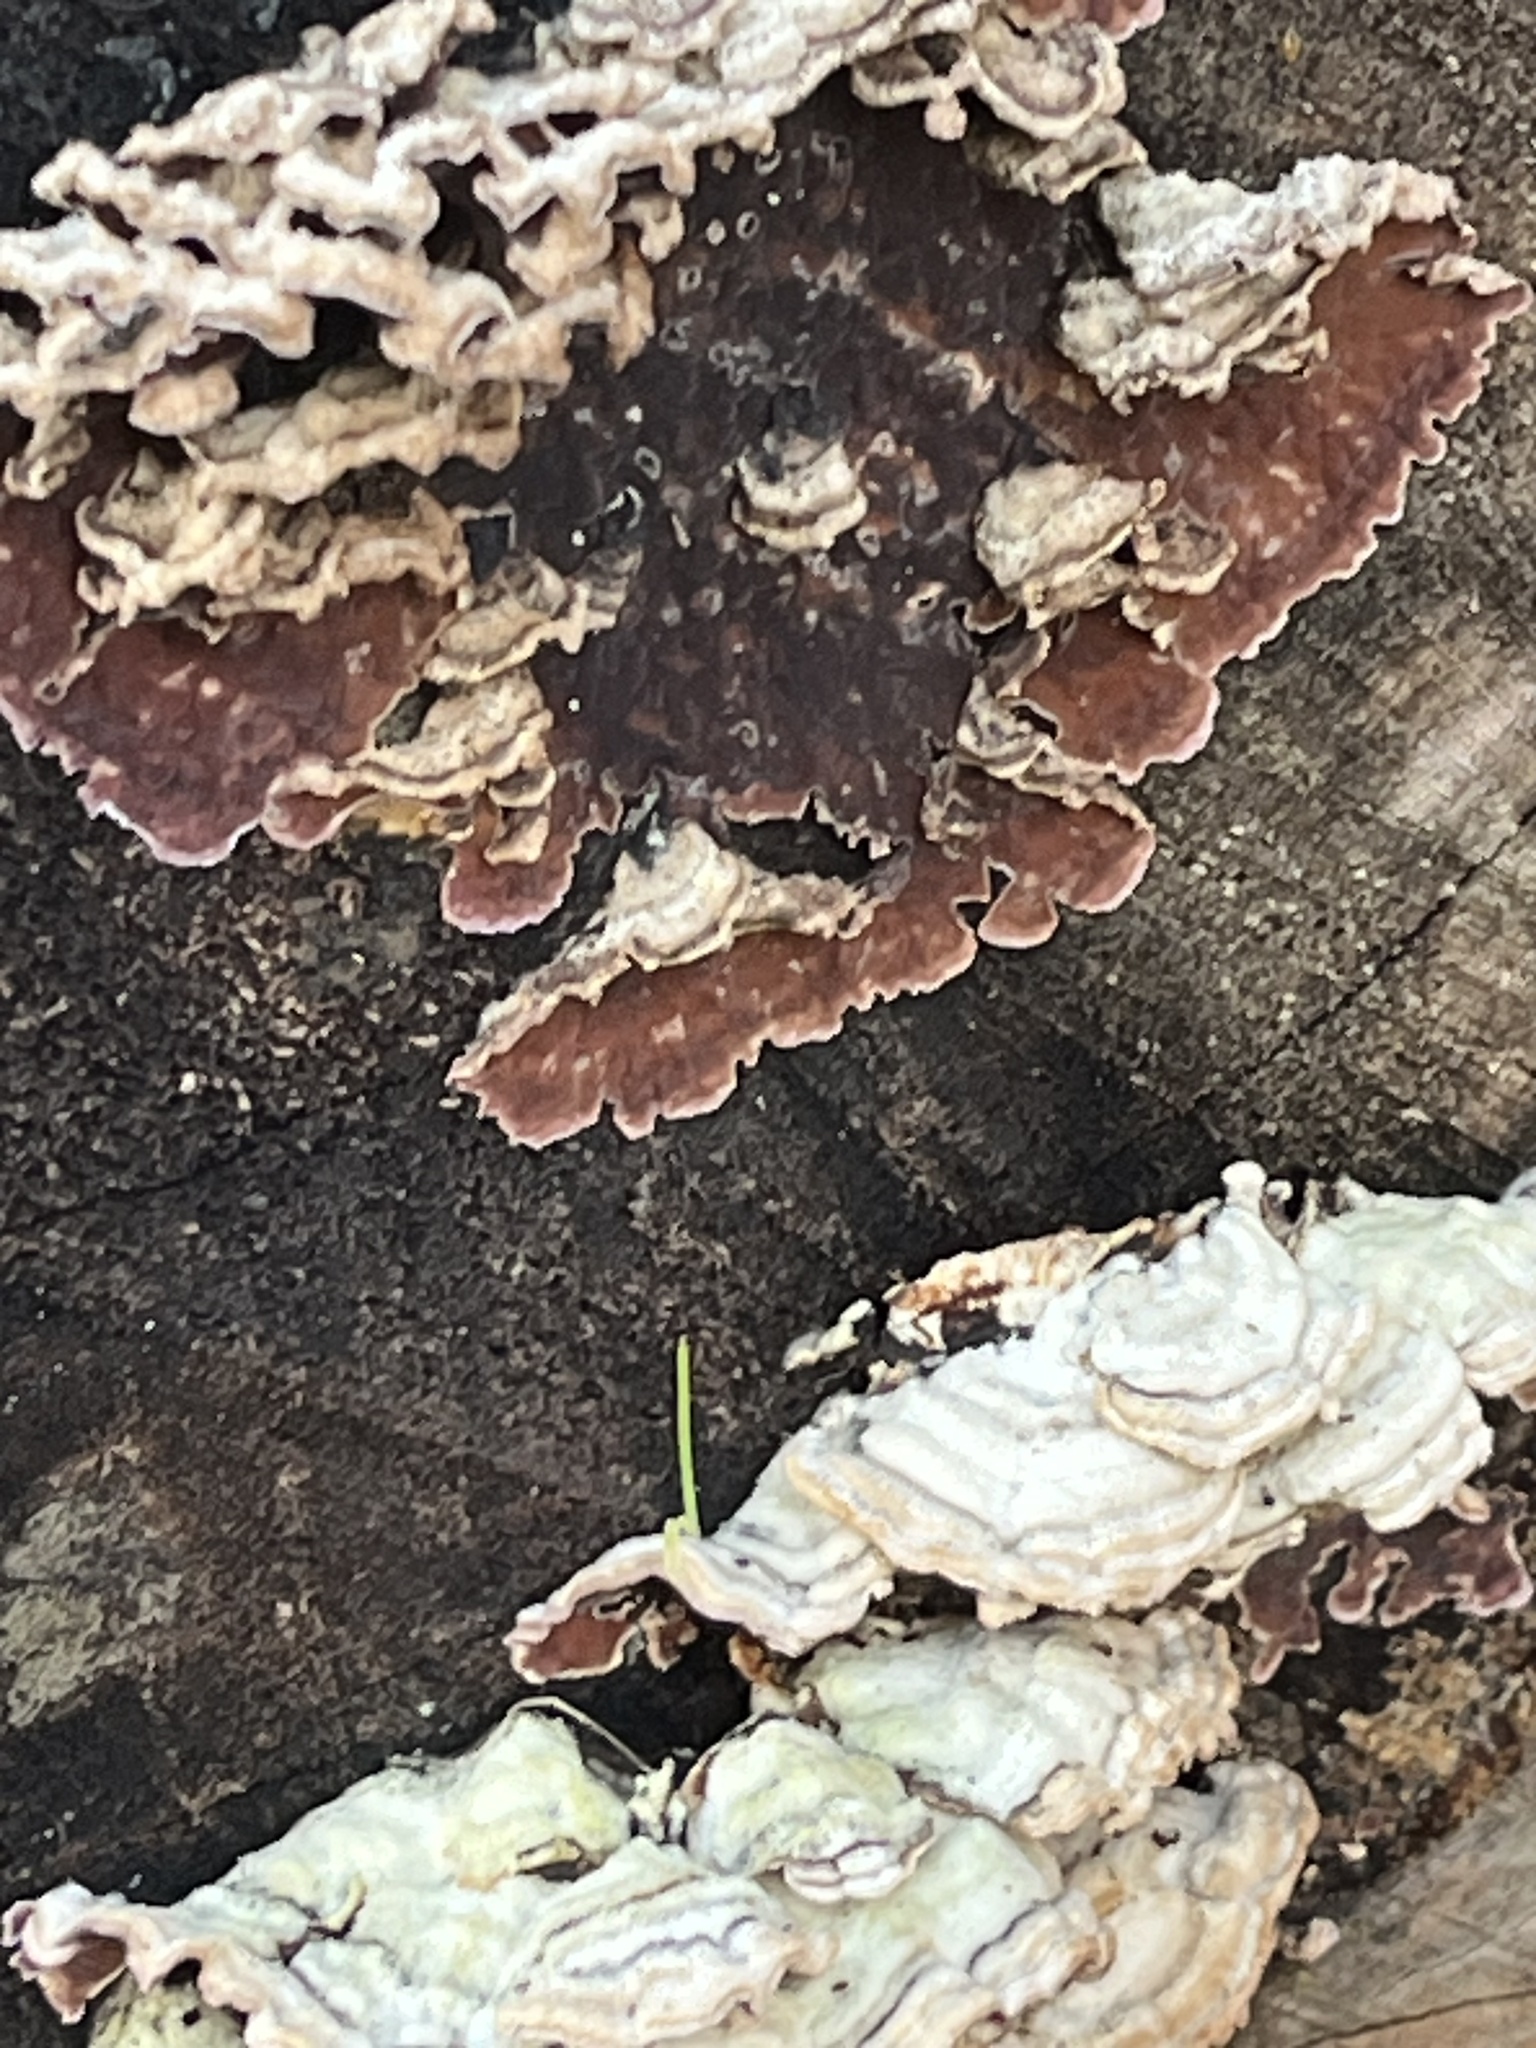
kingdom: Fungi
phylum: Basidiomycota
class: Agaricomycetes
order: Polyporales
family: Polyporaceae
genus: Trametes
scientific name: Trametes versicolor
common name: Turkeytail
